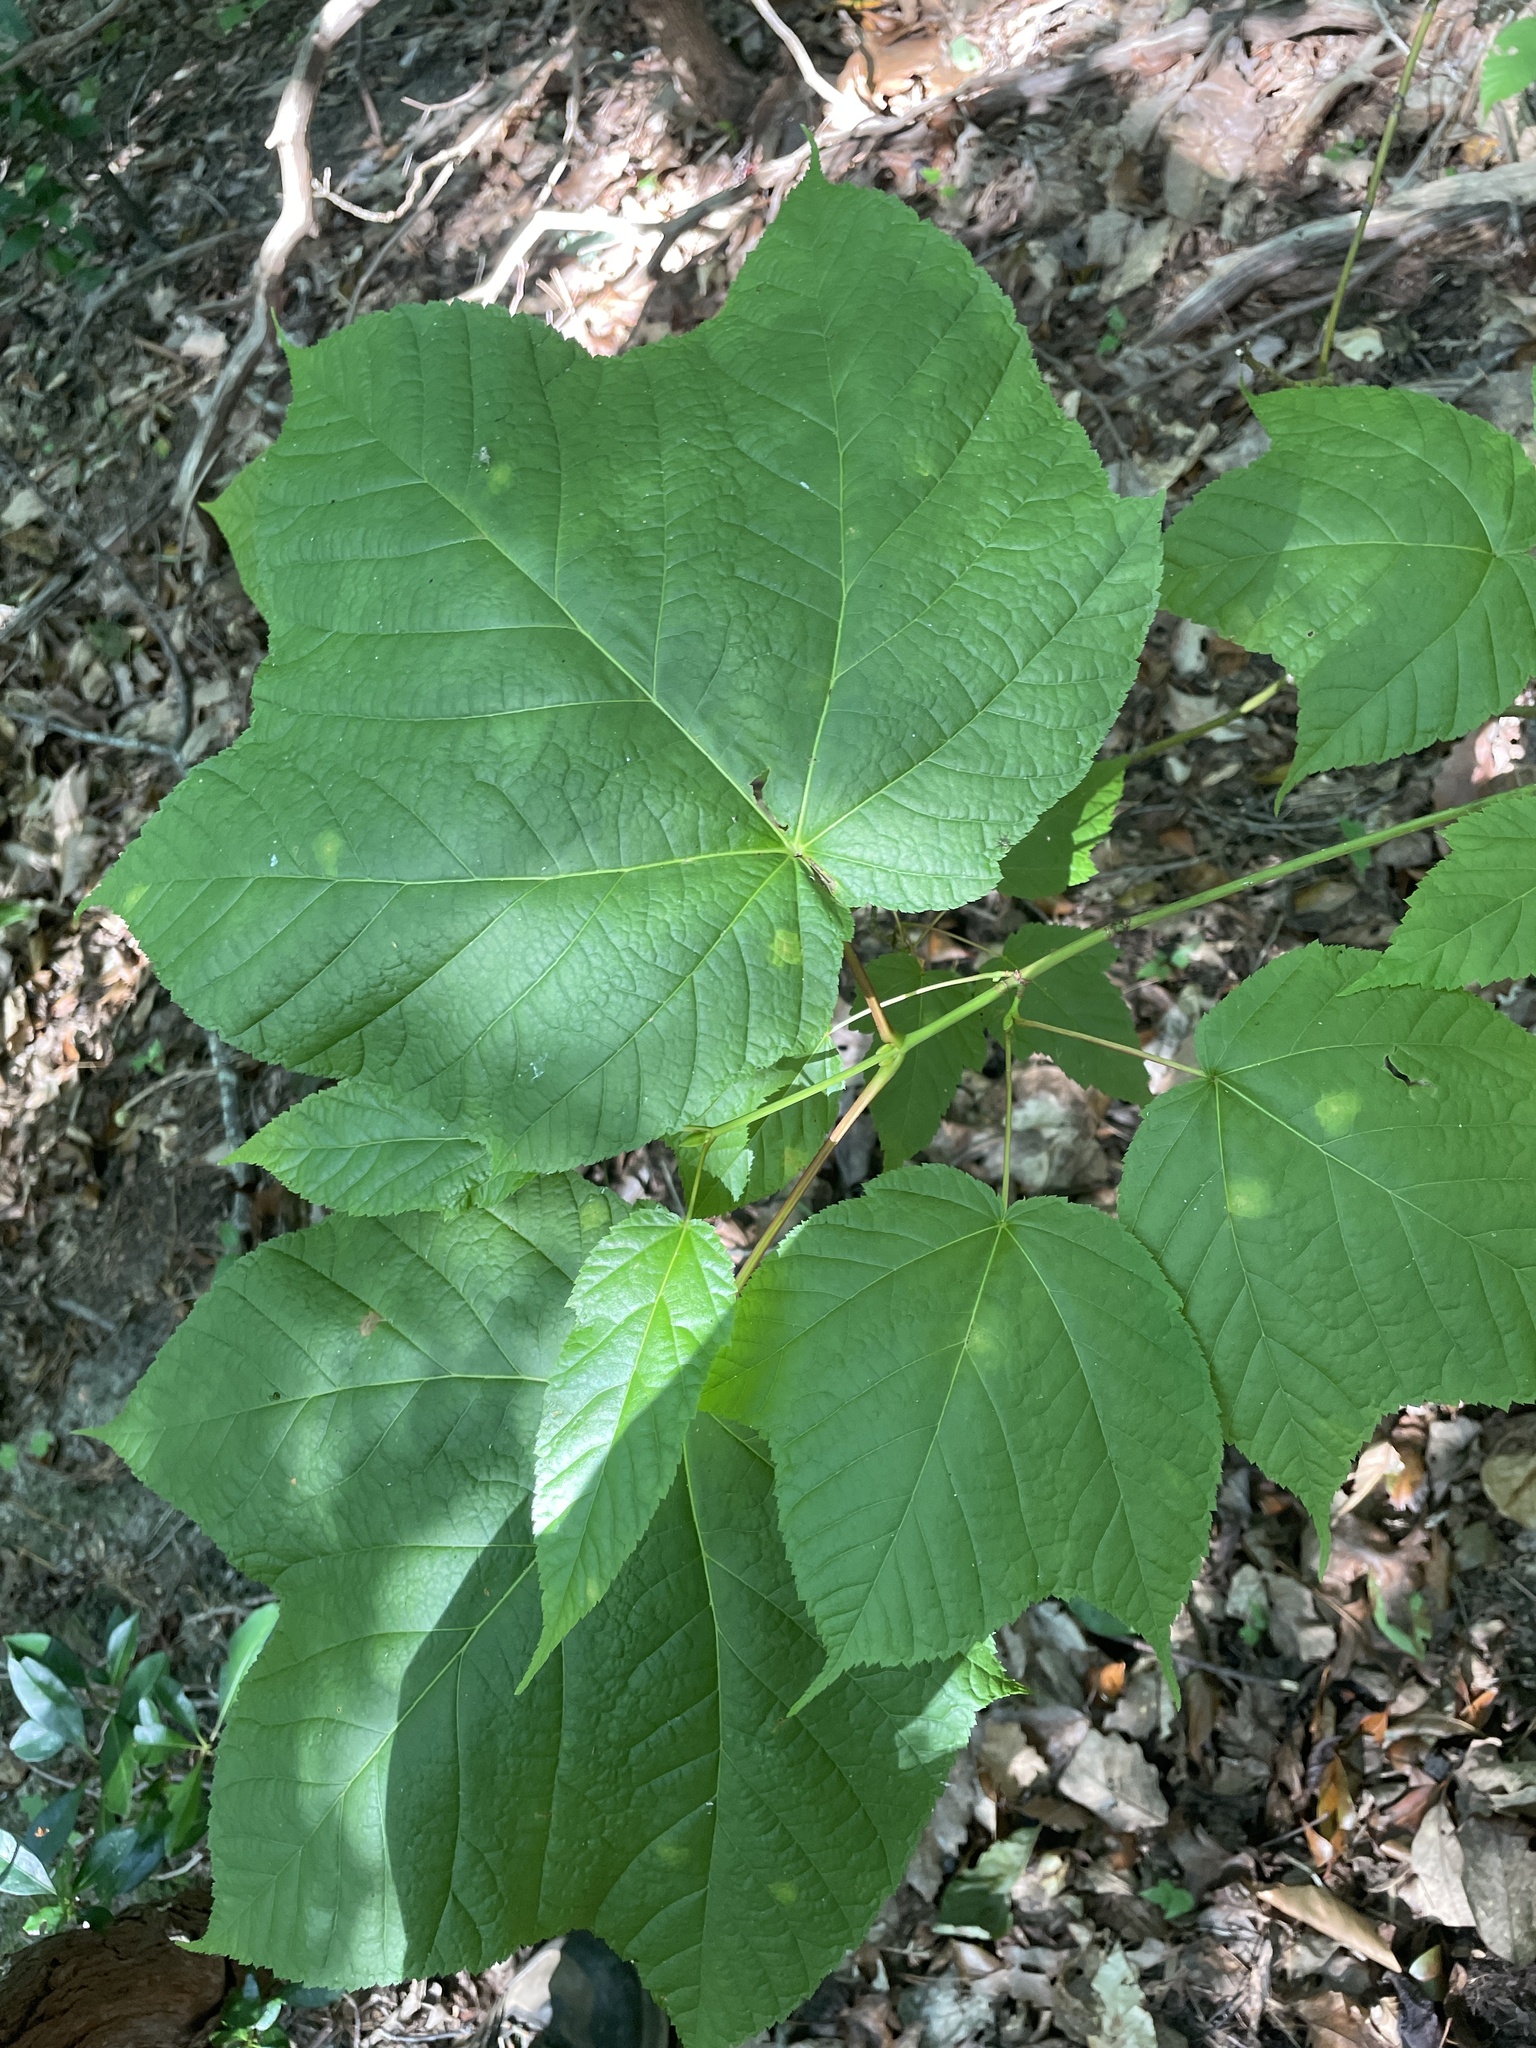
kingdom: Plantae
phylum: Tracheophyta
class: Magnoliopsida
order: Sapindales
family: Sapindaceae
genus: Acer
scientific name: Acer pensylvanicum
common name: Moosewood
